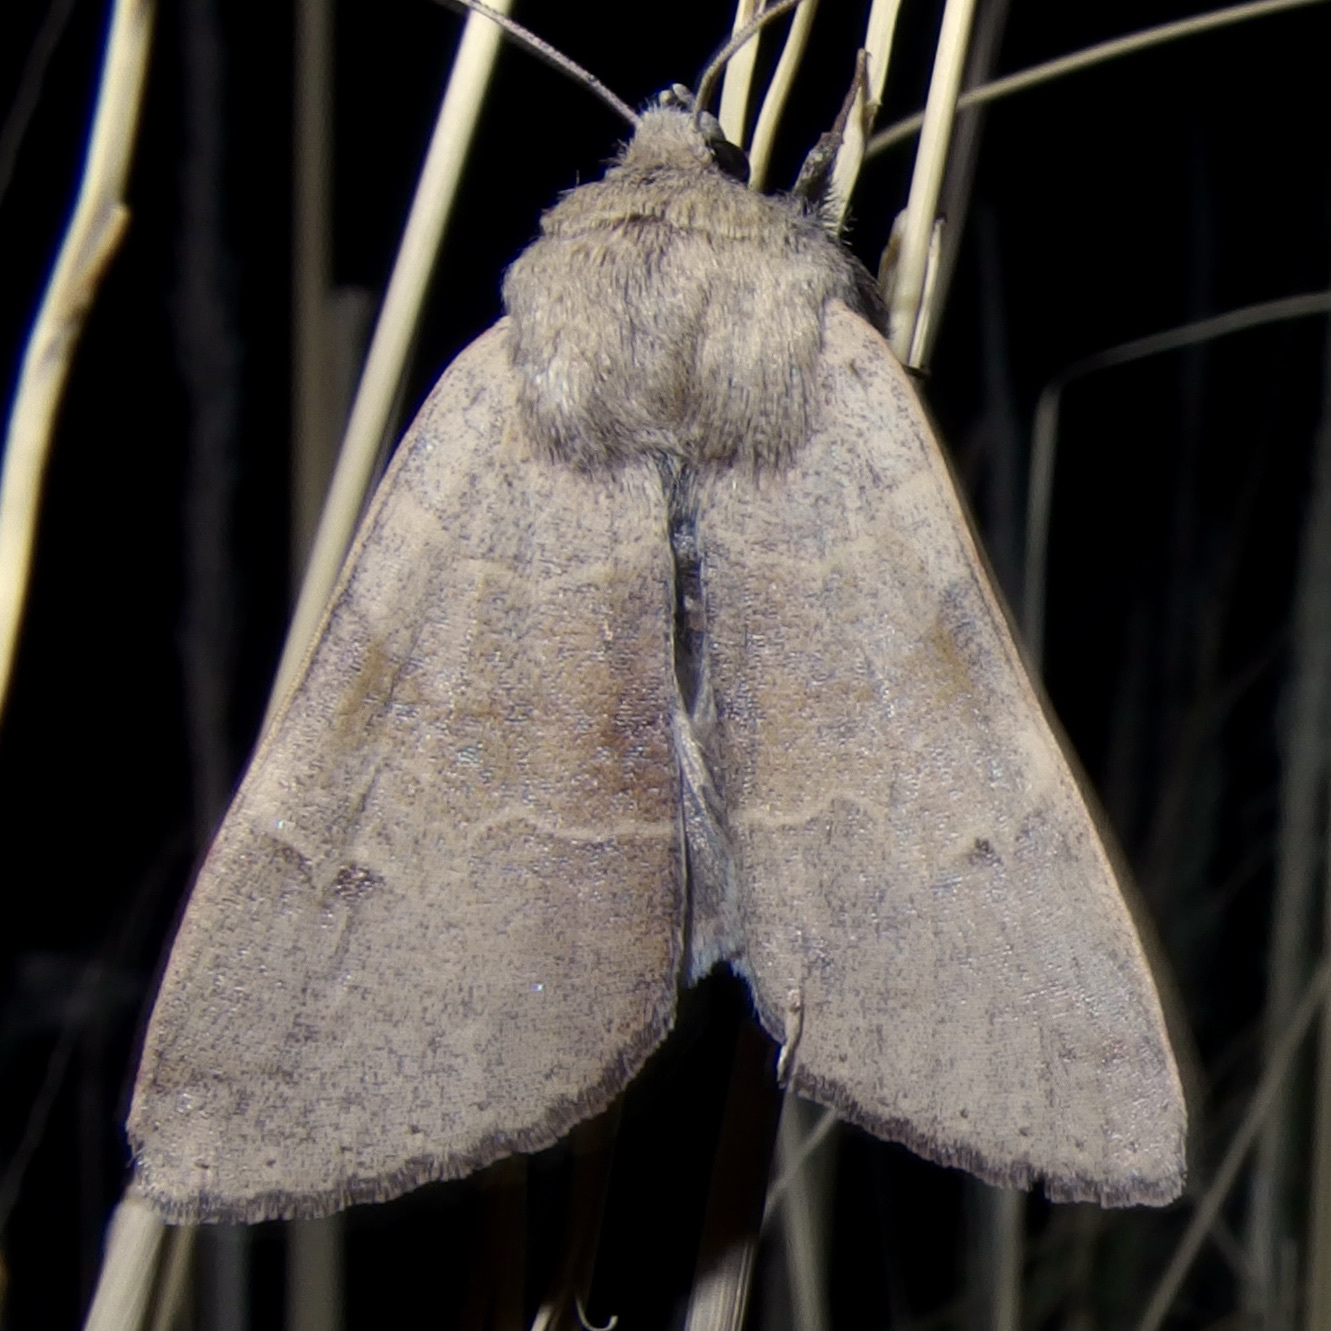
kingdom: Animalia
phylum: Arthropoda
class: Insecta
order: Lepidoptera
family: Erebidae
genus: Ulosyneda
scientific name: Ulosyneda valens
